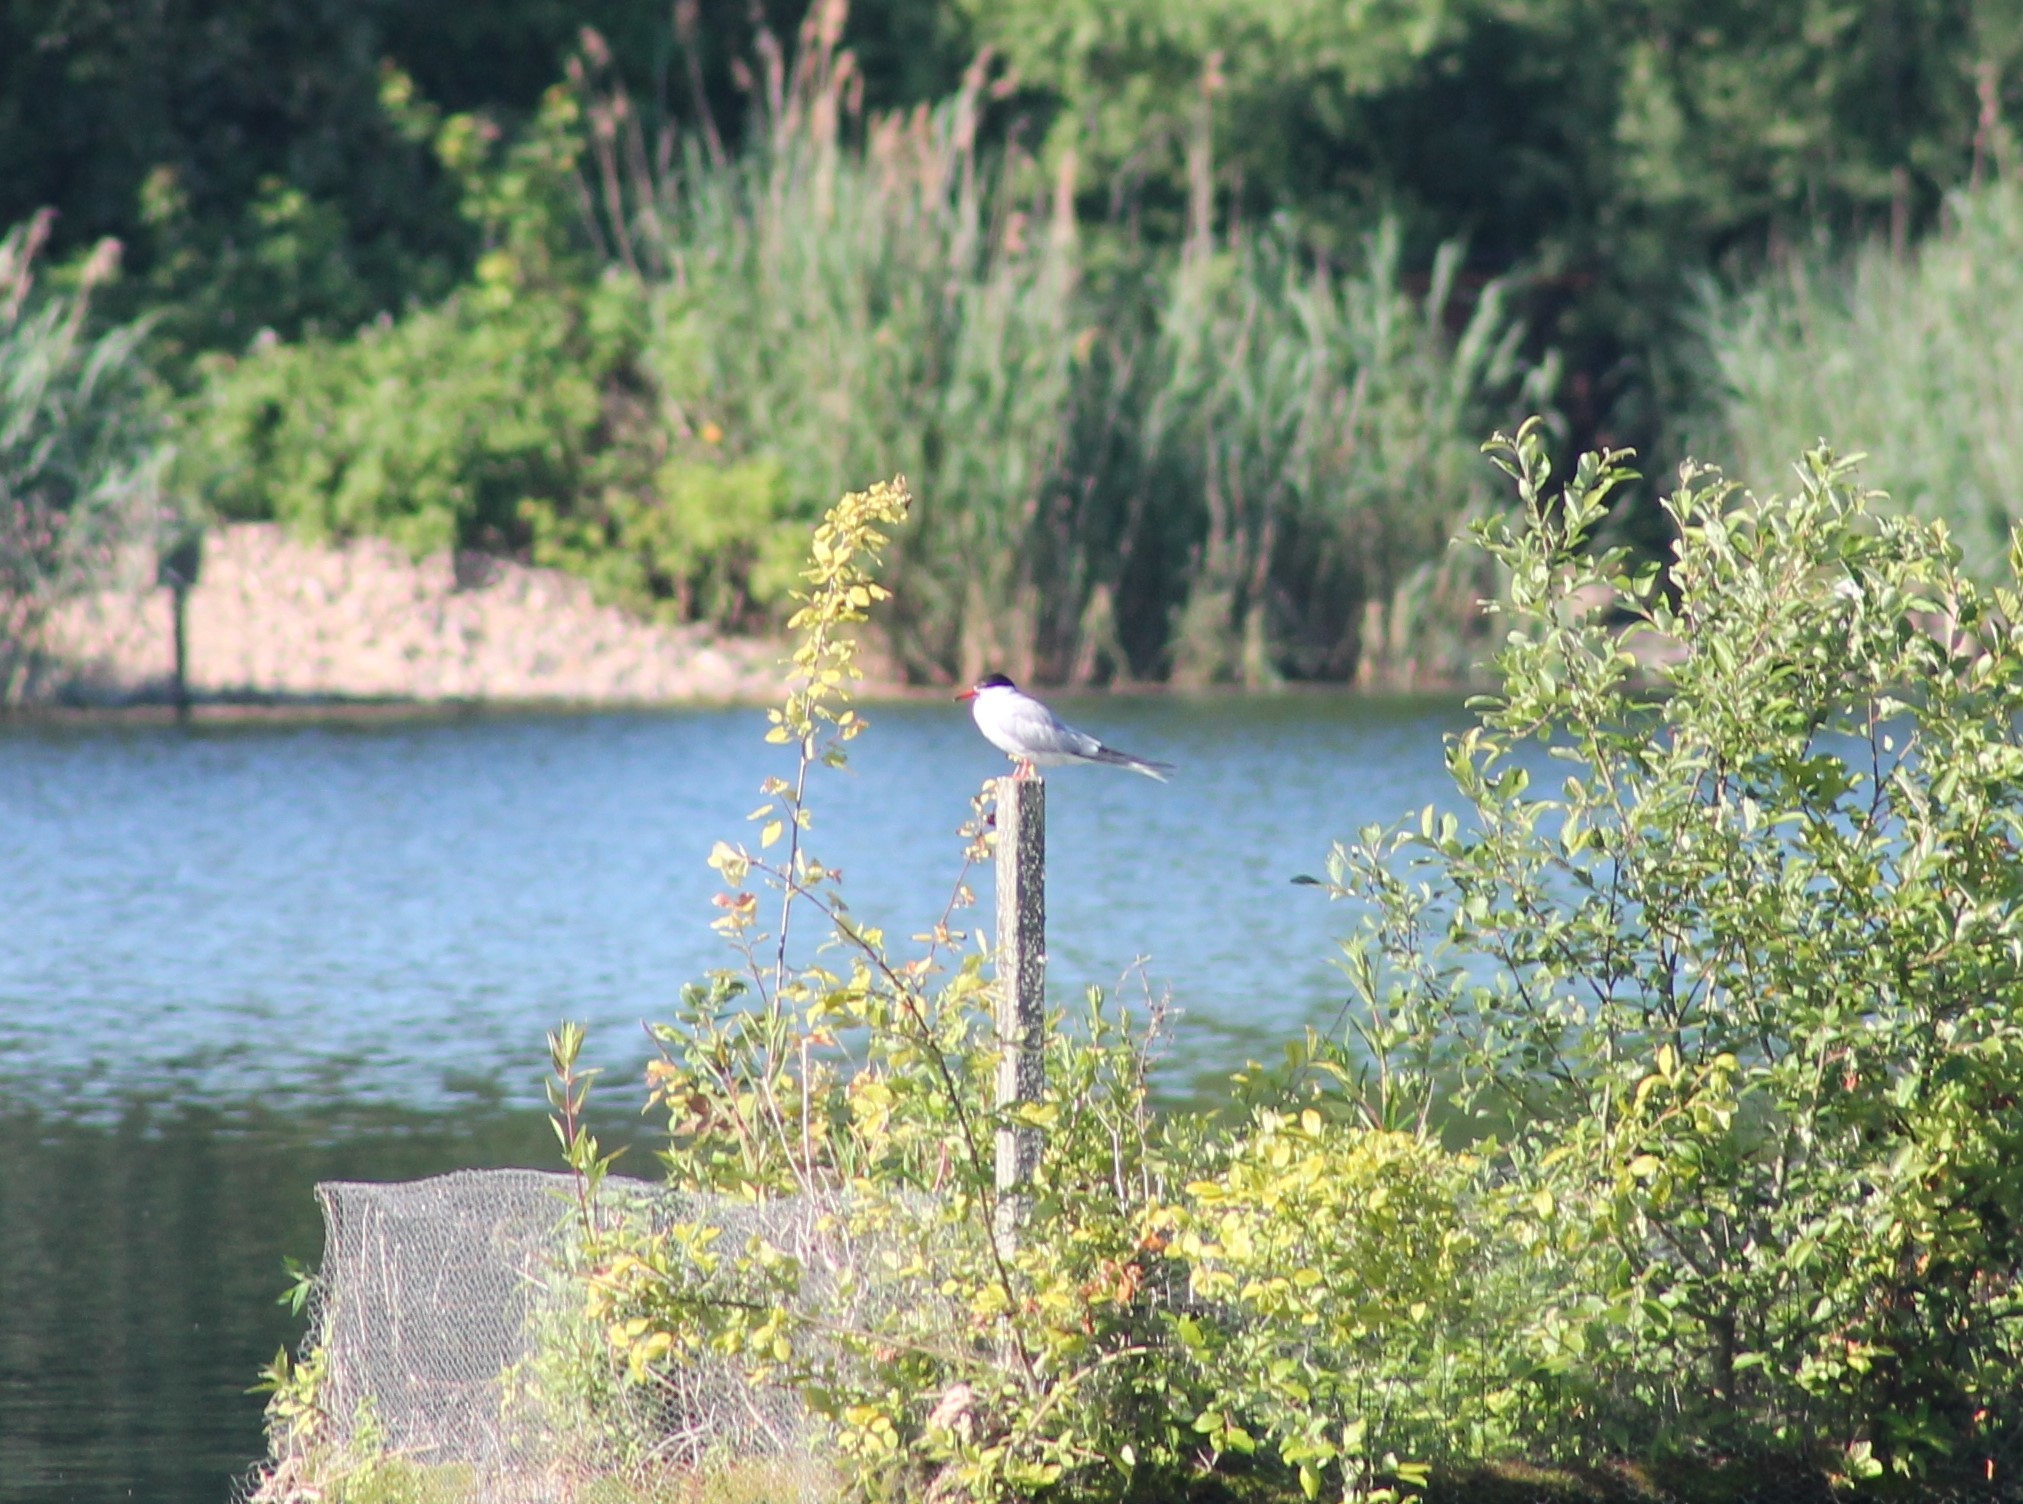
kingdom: Animalia
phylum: Chordata
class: Aves
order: Charadriiformes
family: Laridae
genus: Sterna
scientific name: Sterna hirundo
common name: Common tern
